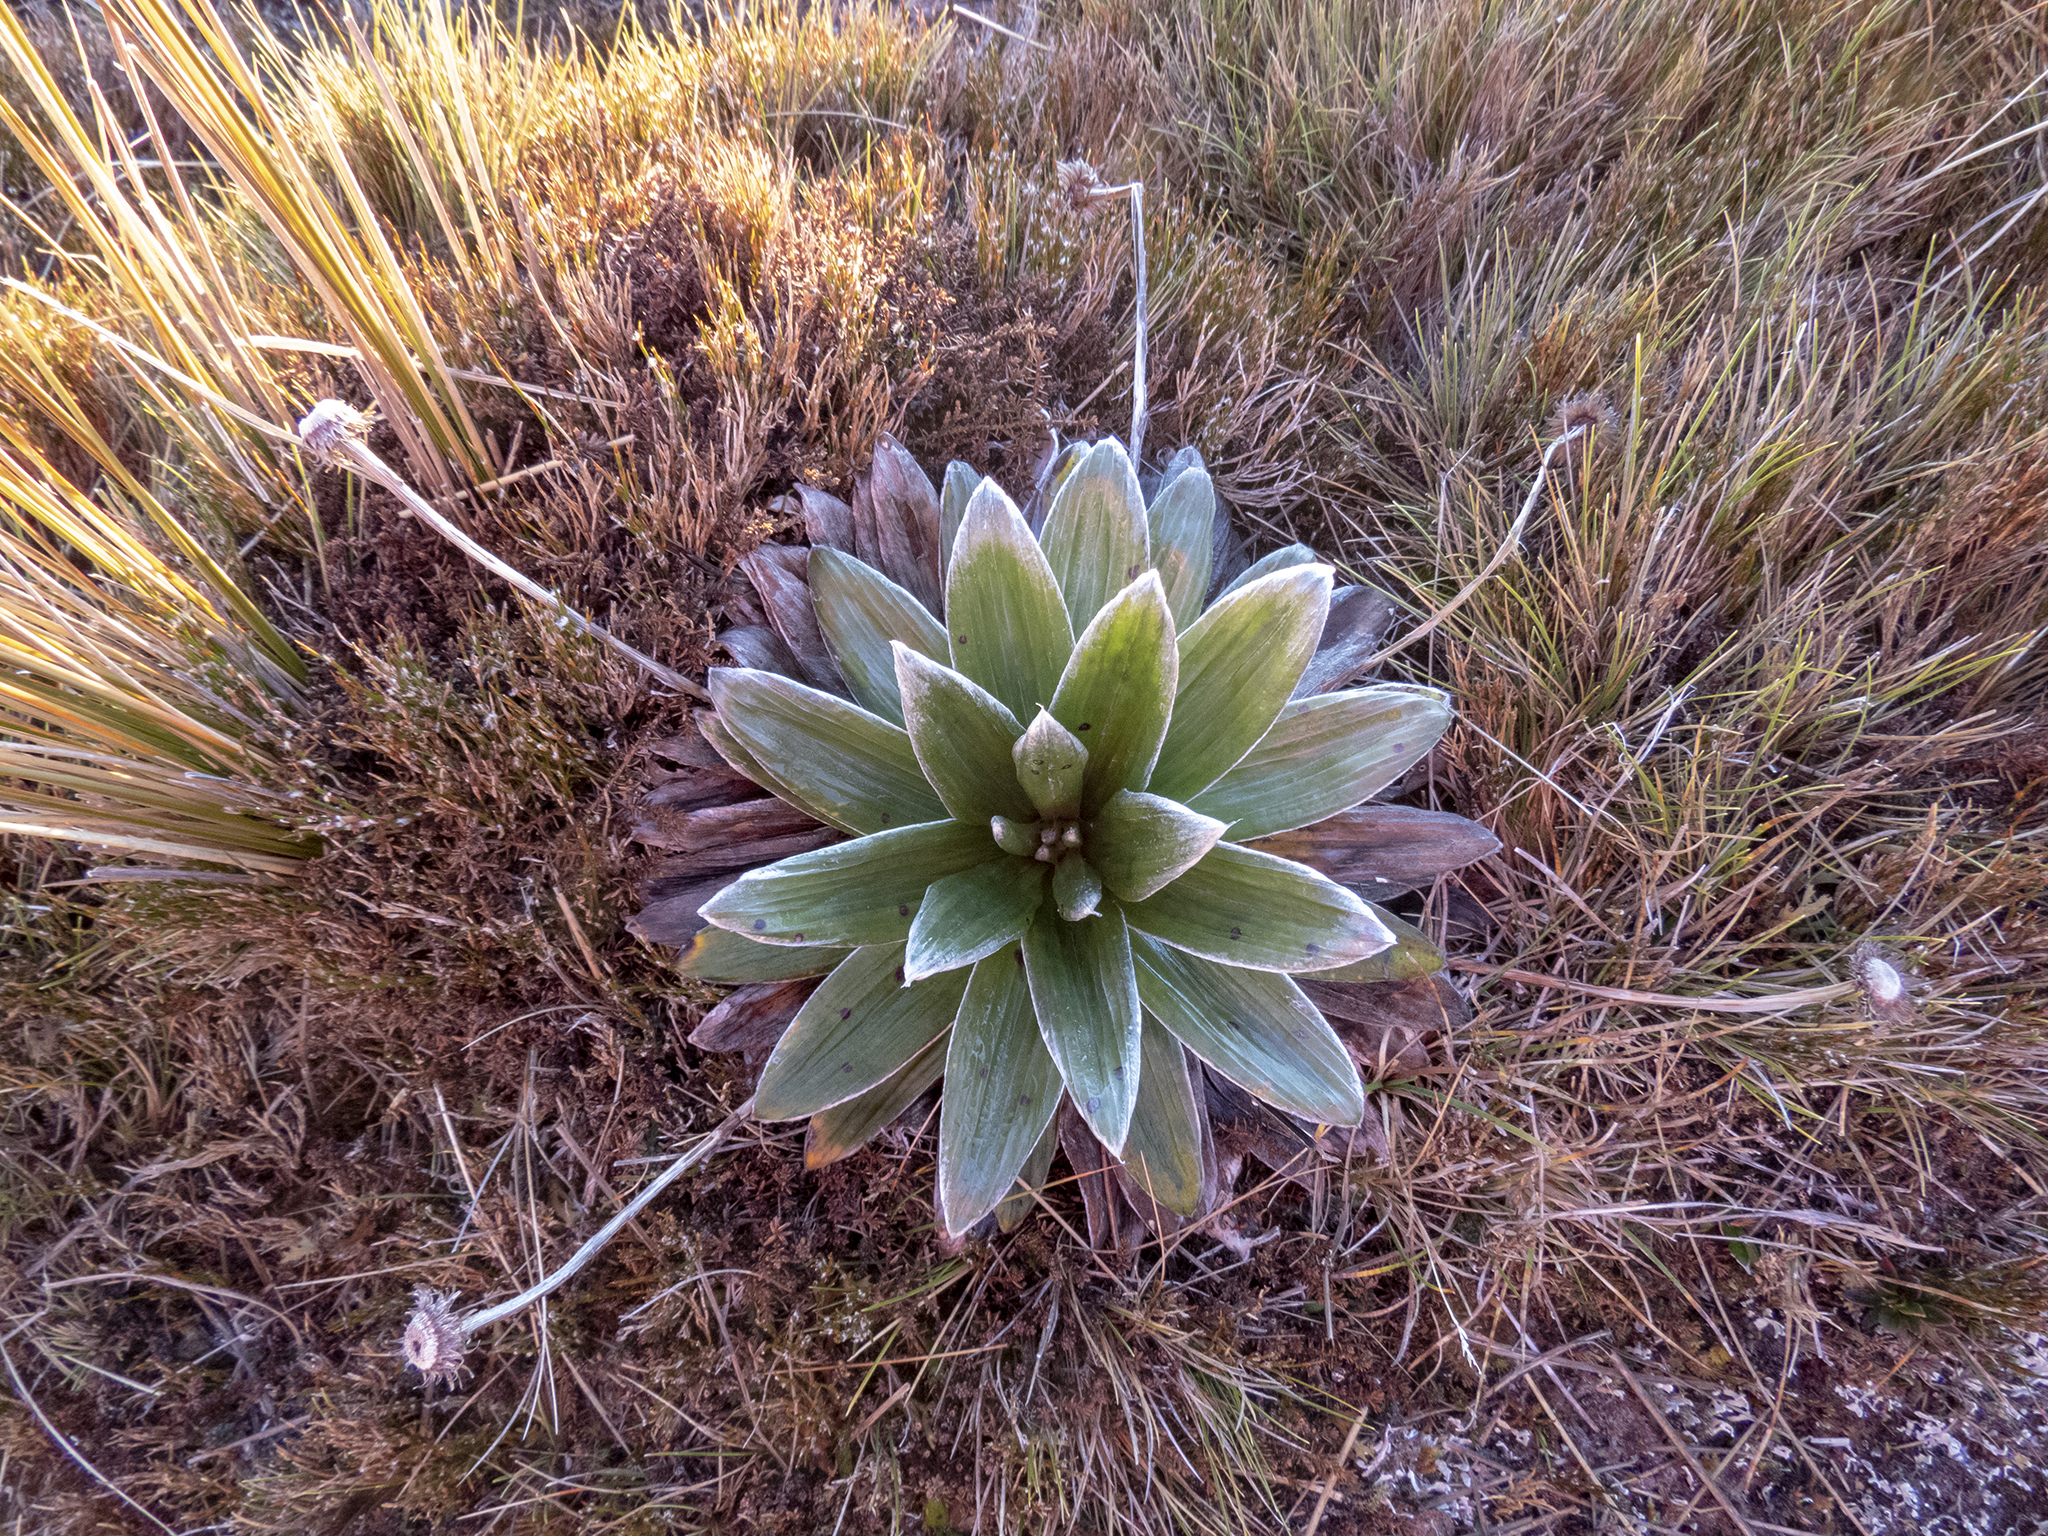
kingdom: Plantae
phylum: Tracheophyta
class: Magnoliopsida
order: Asterales
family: Asteraceae
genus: Celmisia
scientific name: Celmisia semicordata
